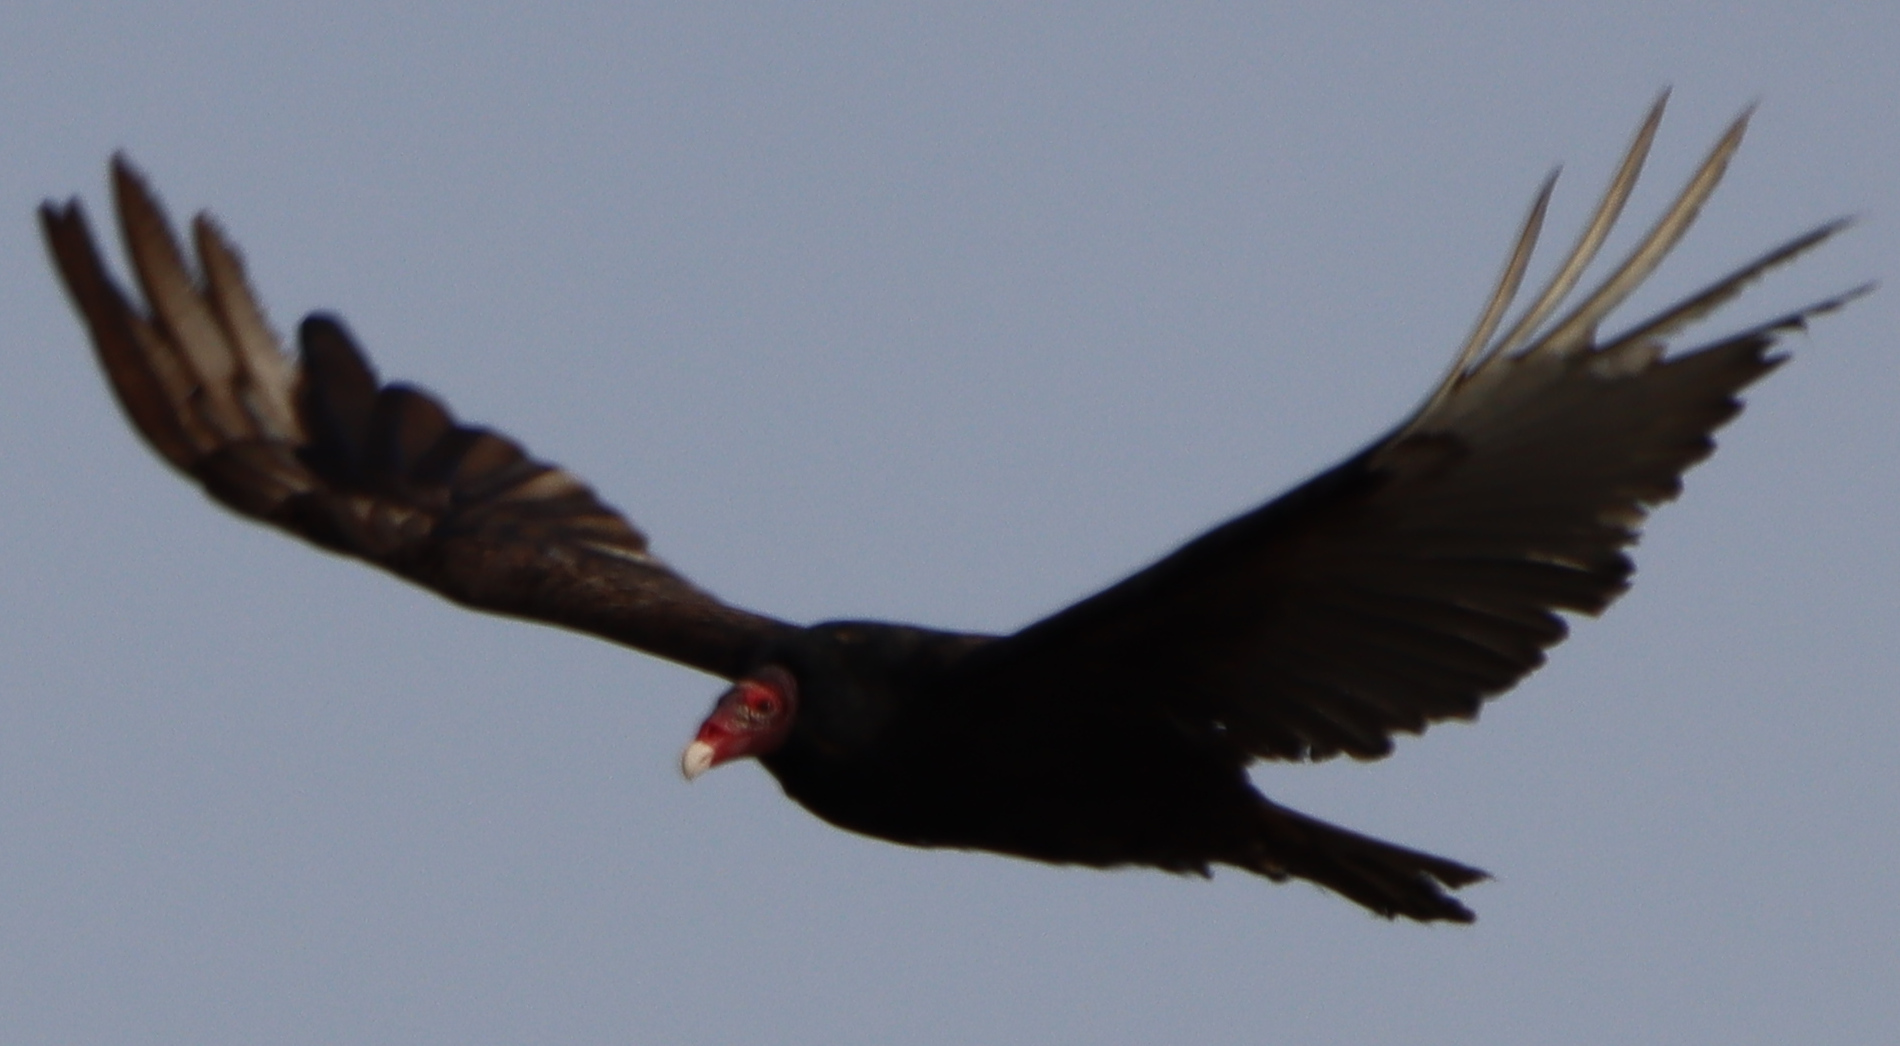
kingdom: Animalia
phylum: Chordata
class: Aves
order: Accipitriformes
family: Cathartidae
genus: Cathartes
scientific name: Cathartes aura
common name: Turkey vulture
